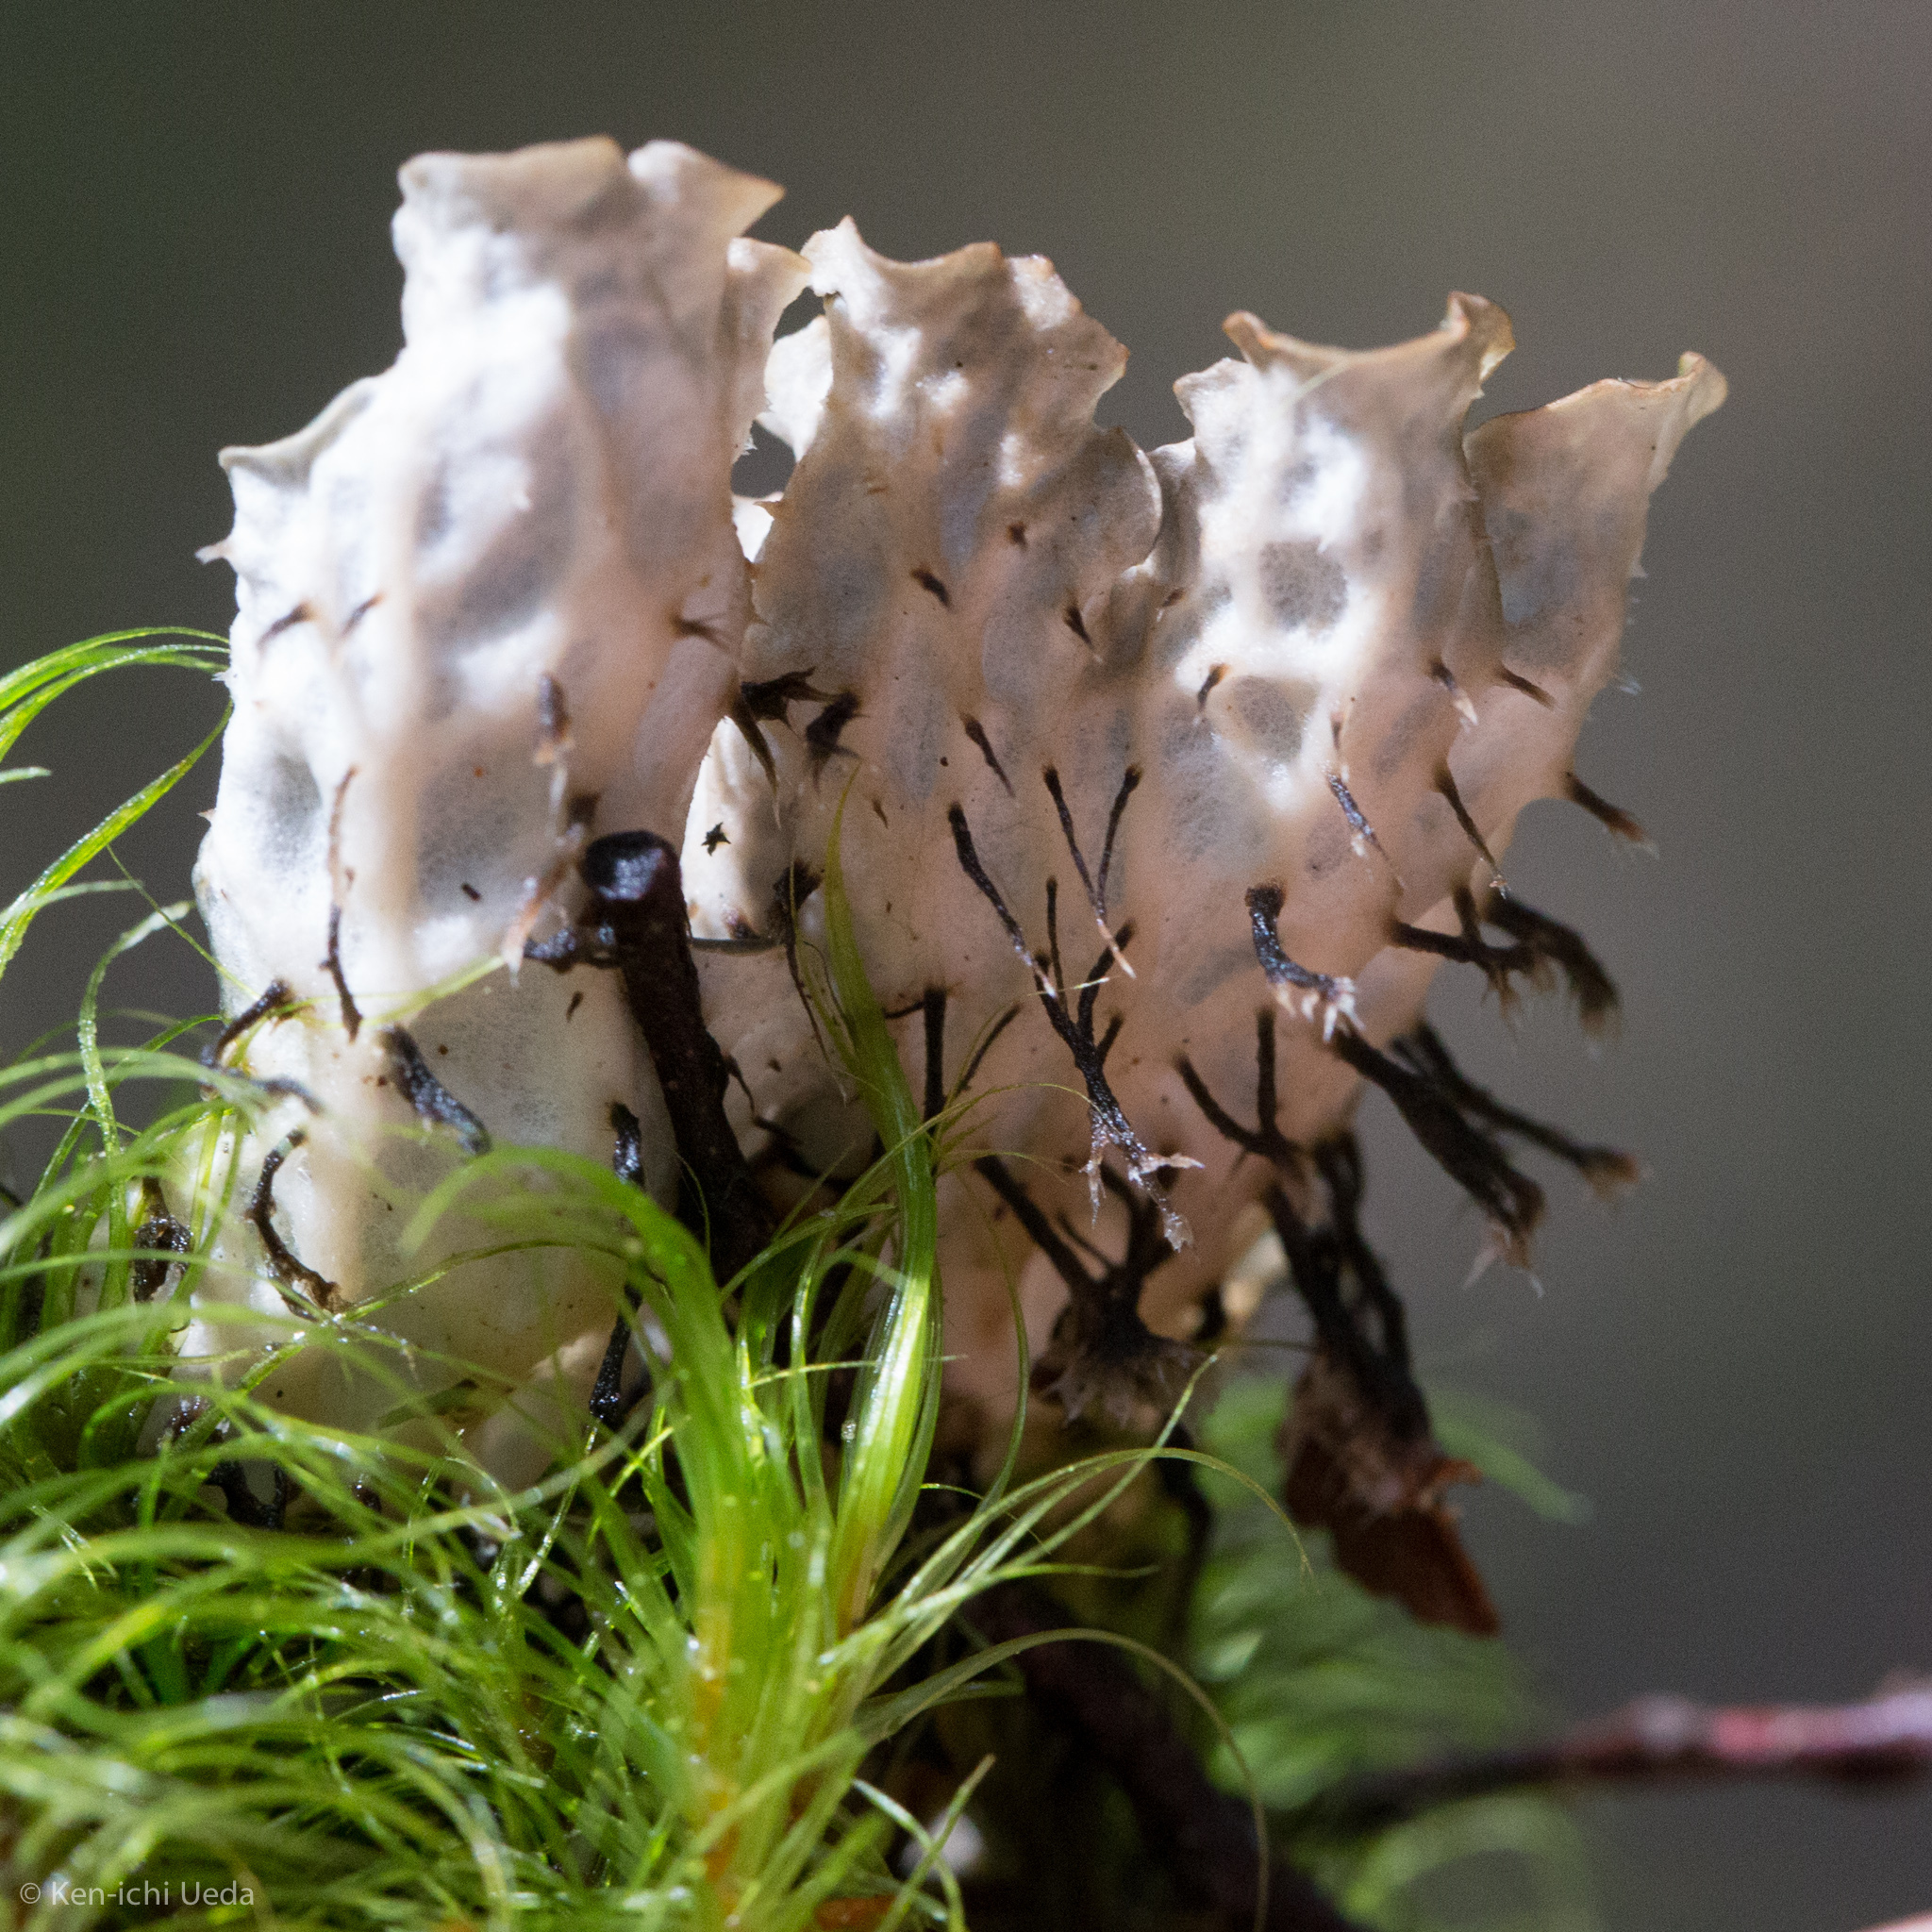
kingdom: Fungi
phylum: Ascomycota
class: Lecanoromycetes
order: Peltigerales
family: Peltigeraceae
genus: Peltigera
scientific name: Peltigera dolichorhiza
